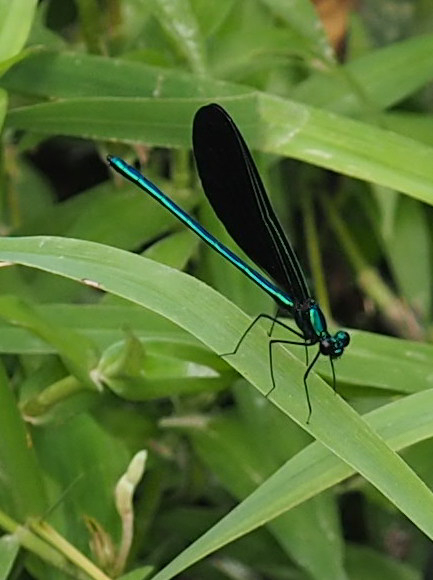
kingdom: Animalia
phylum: Arthropoda
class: Insecta
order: Odonata
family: Calopterygidae
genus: Calopteryx
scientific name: Calopteryx maculata
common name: Ebony jewelwing
